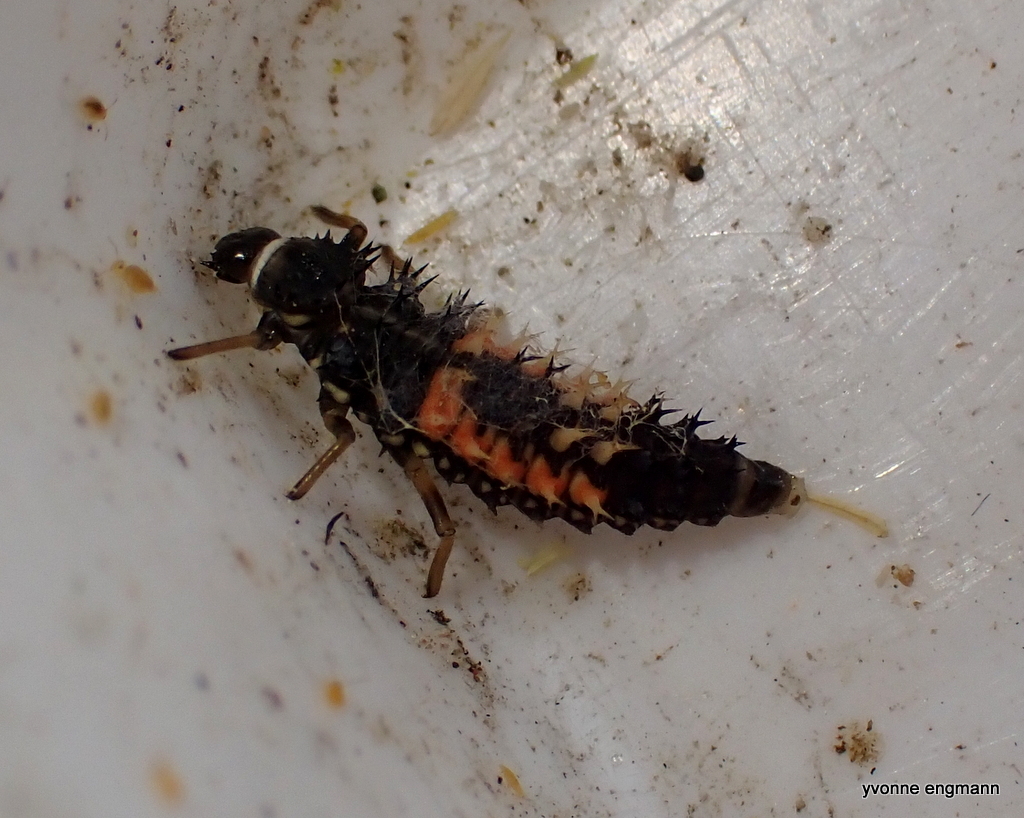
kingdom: Animalia
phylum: Arthropoda
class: Insecta
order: Coleoptera
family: Coccinellidae
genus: Harmonia
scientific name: Harmonia axyridis
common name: Harlequin ladybird
